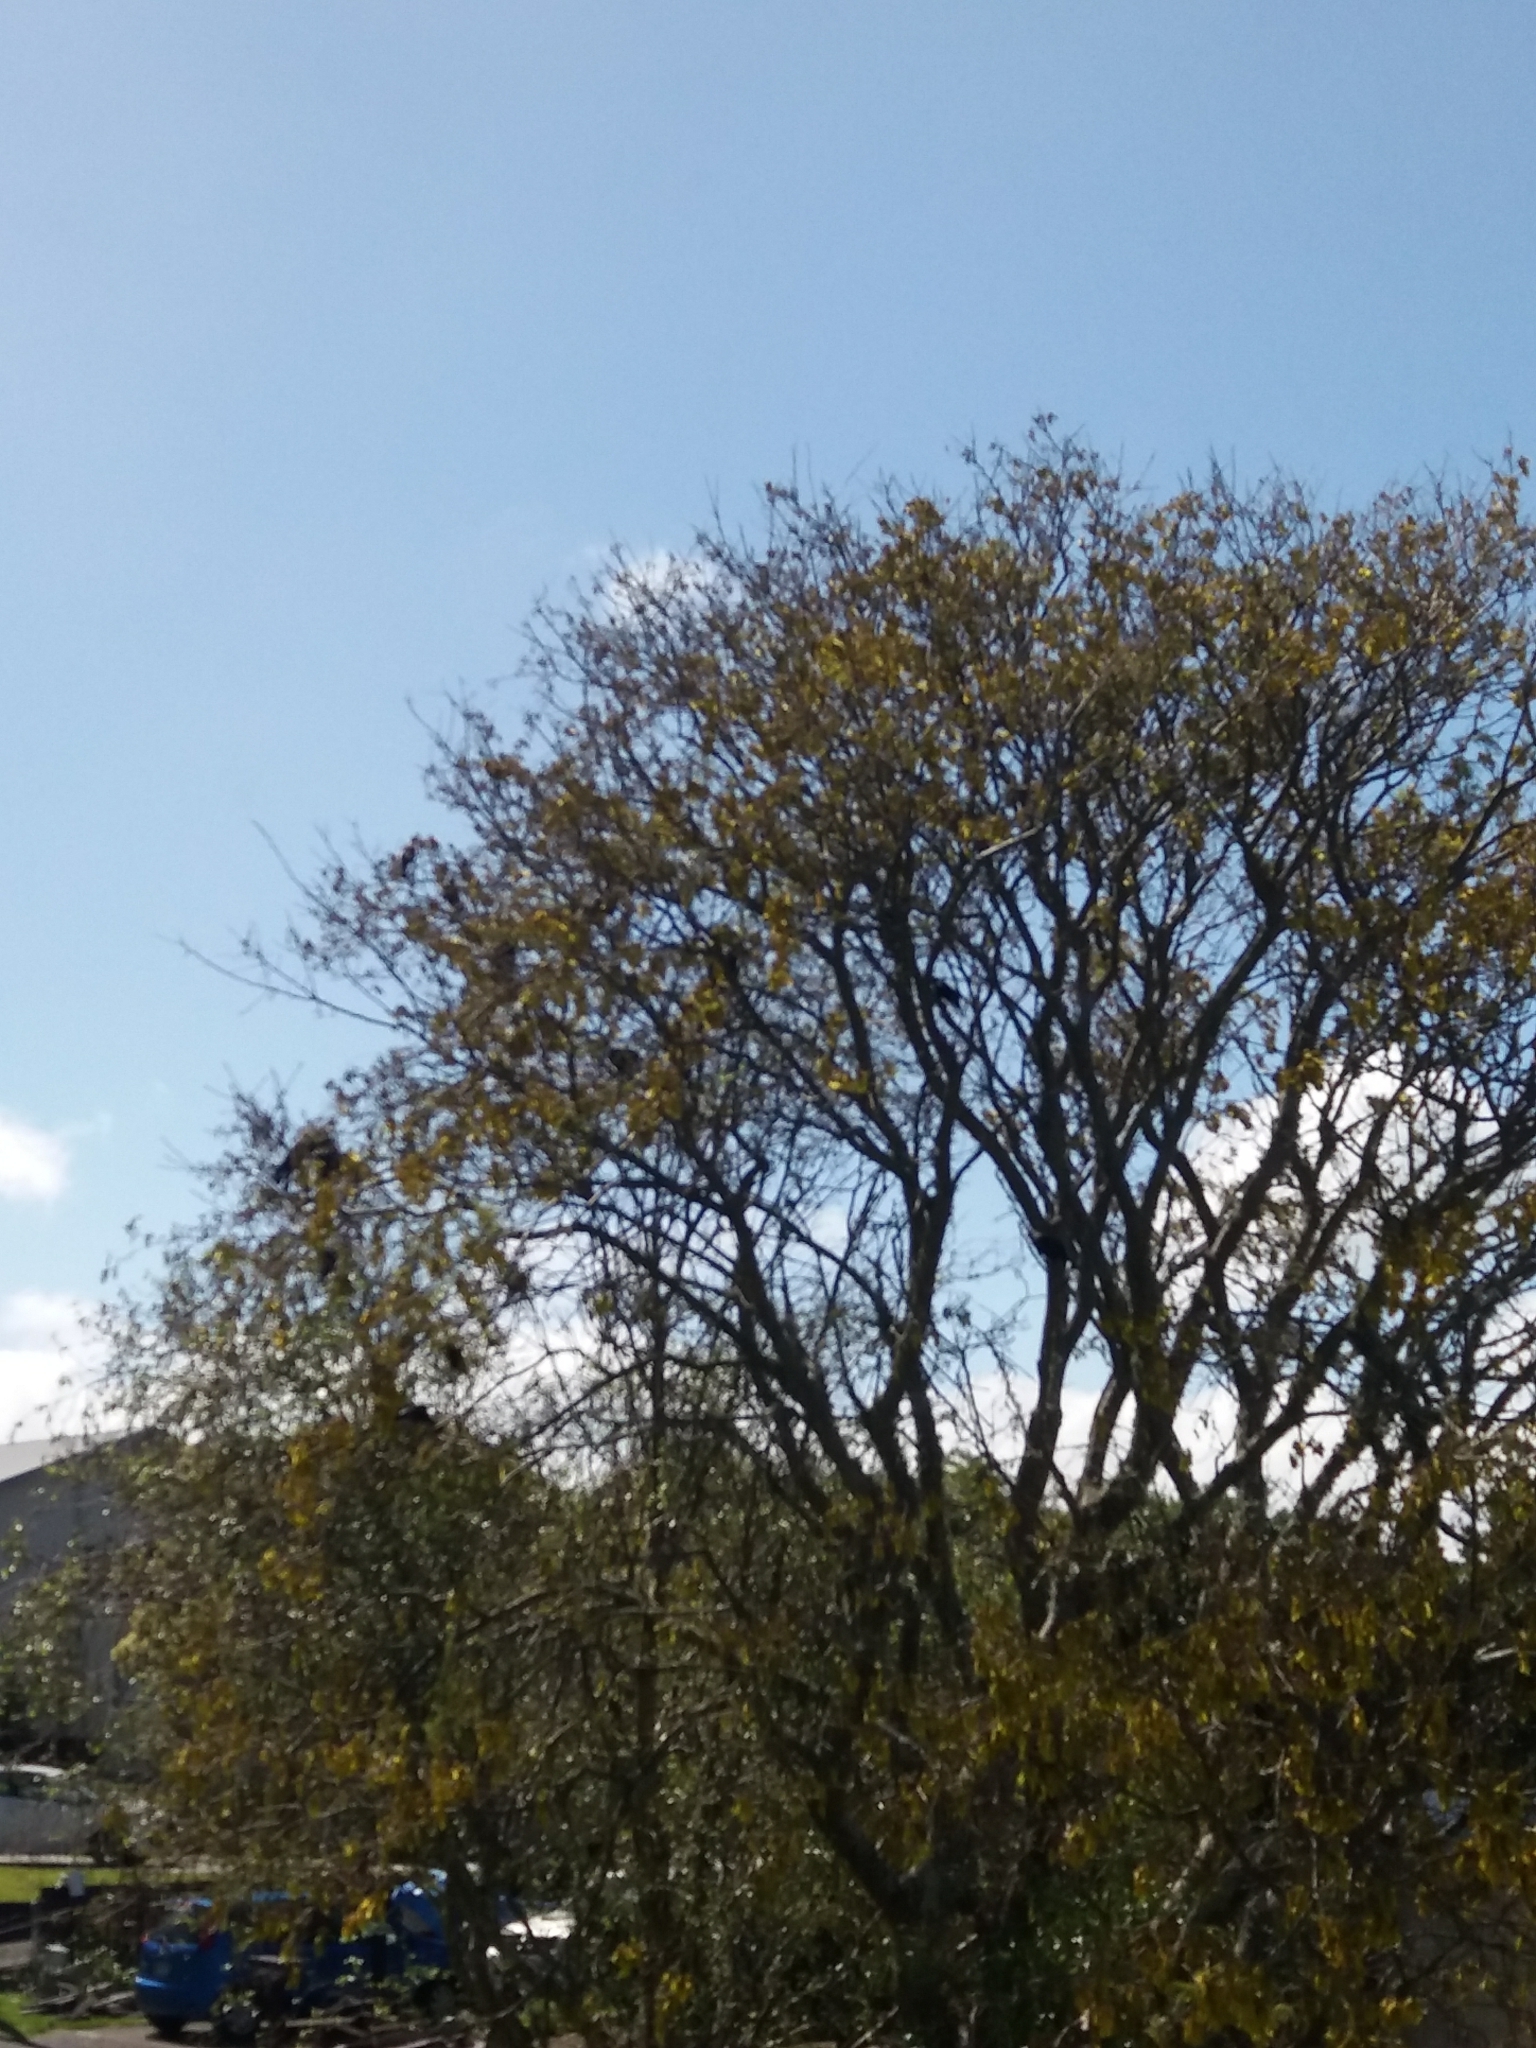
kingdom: Animalia
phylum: Chordata
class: Aves
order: Passeriformes
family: Meliphagidae
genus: Prosthemadera
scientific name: Prosthemadera novaeseelandiae
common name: Tui
